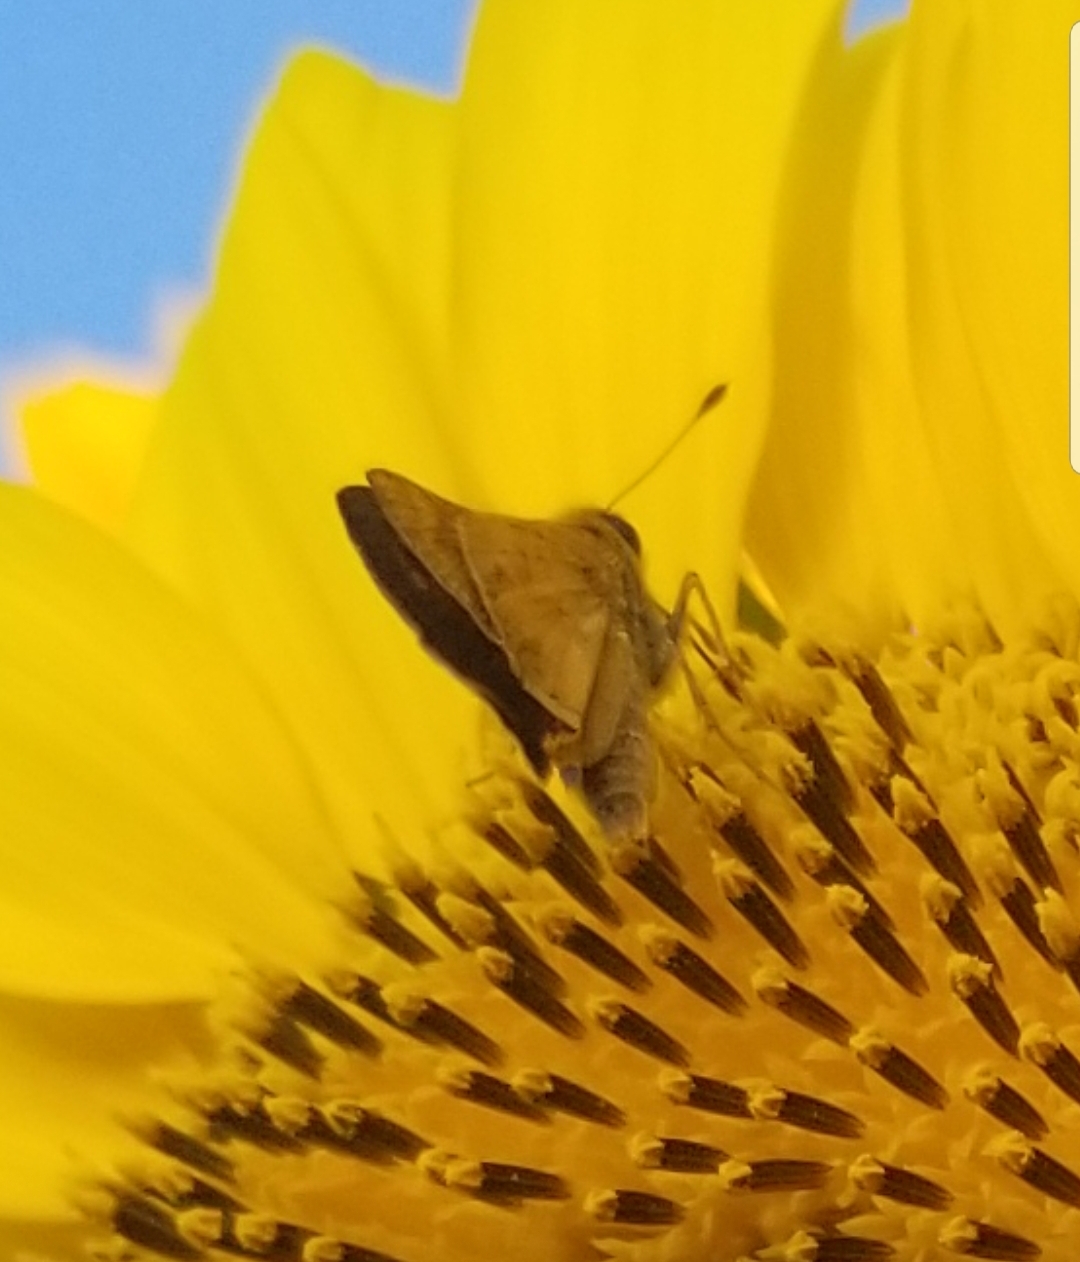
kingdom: Animalia
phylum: Arthropoda
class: Insecta
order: Lepidoptera
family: Hesperiidae
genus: Atalopedes
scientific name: Atalopedes
